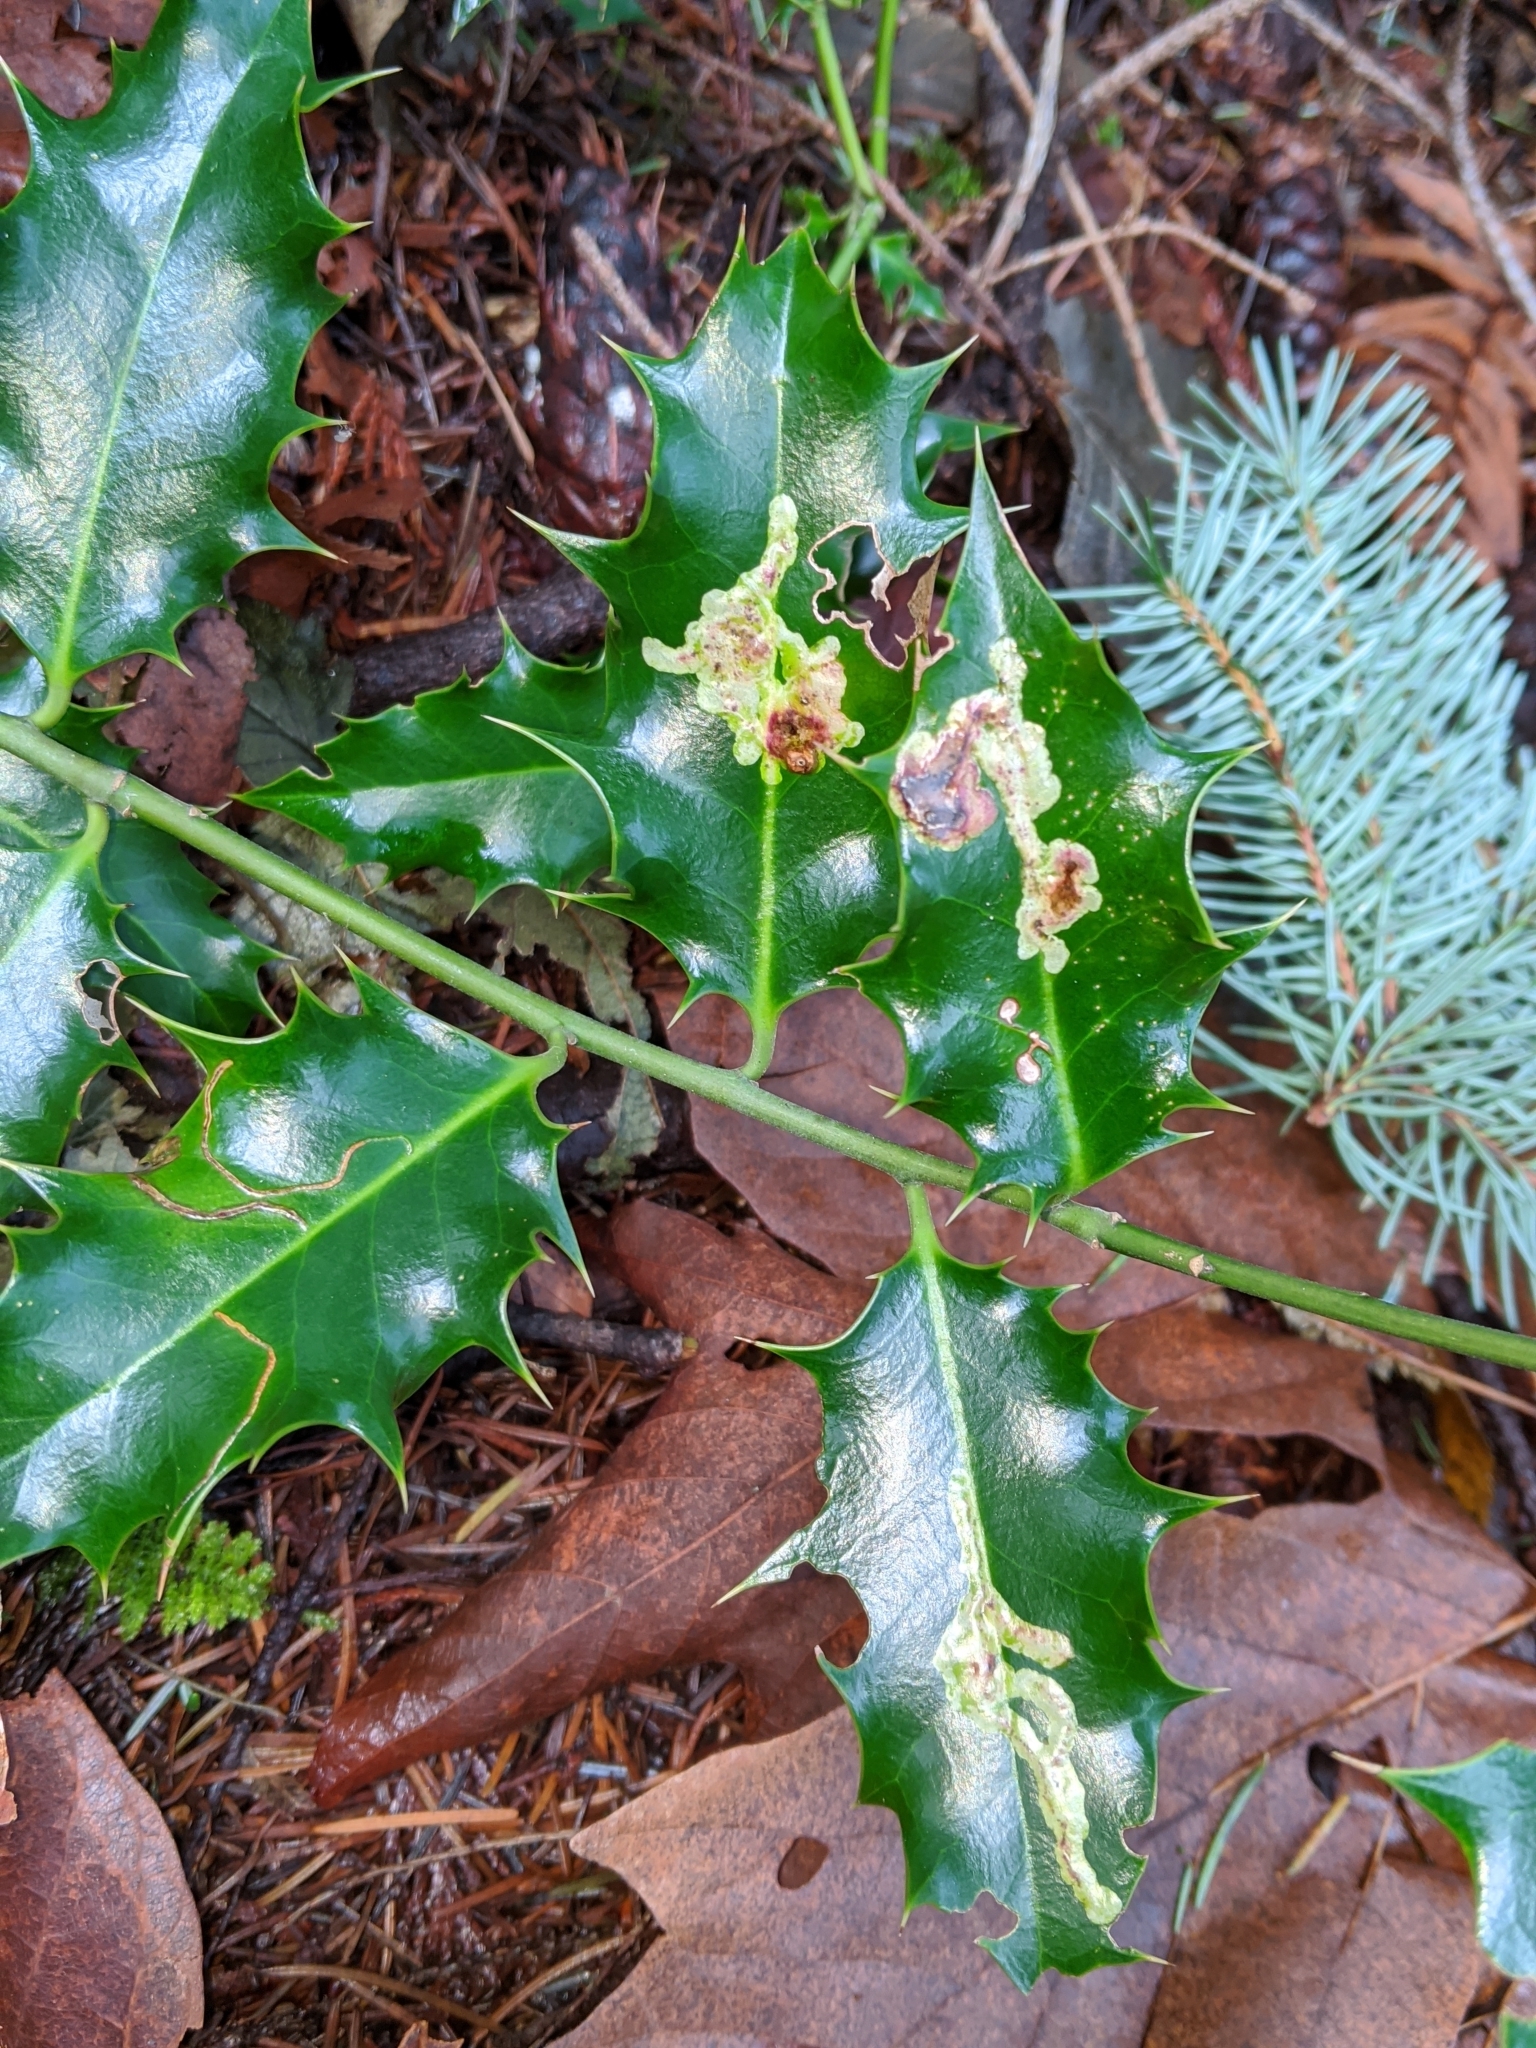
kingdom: Animalia
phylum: Arthropoda
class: Insecta
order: Diptera
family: Agromyzidae
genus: Phytomyza
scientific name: Phytomyza ilicis
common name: Holly leafminer
